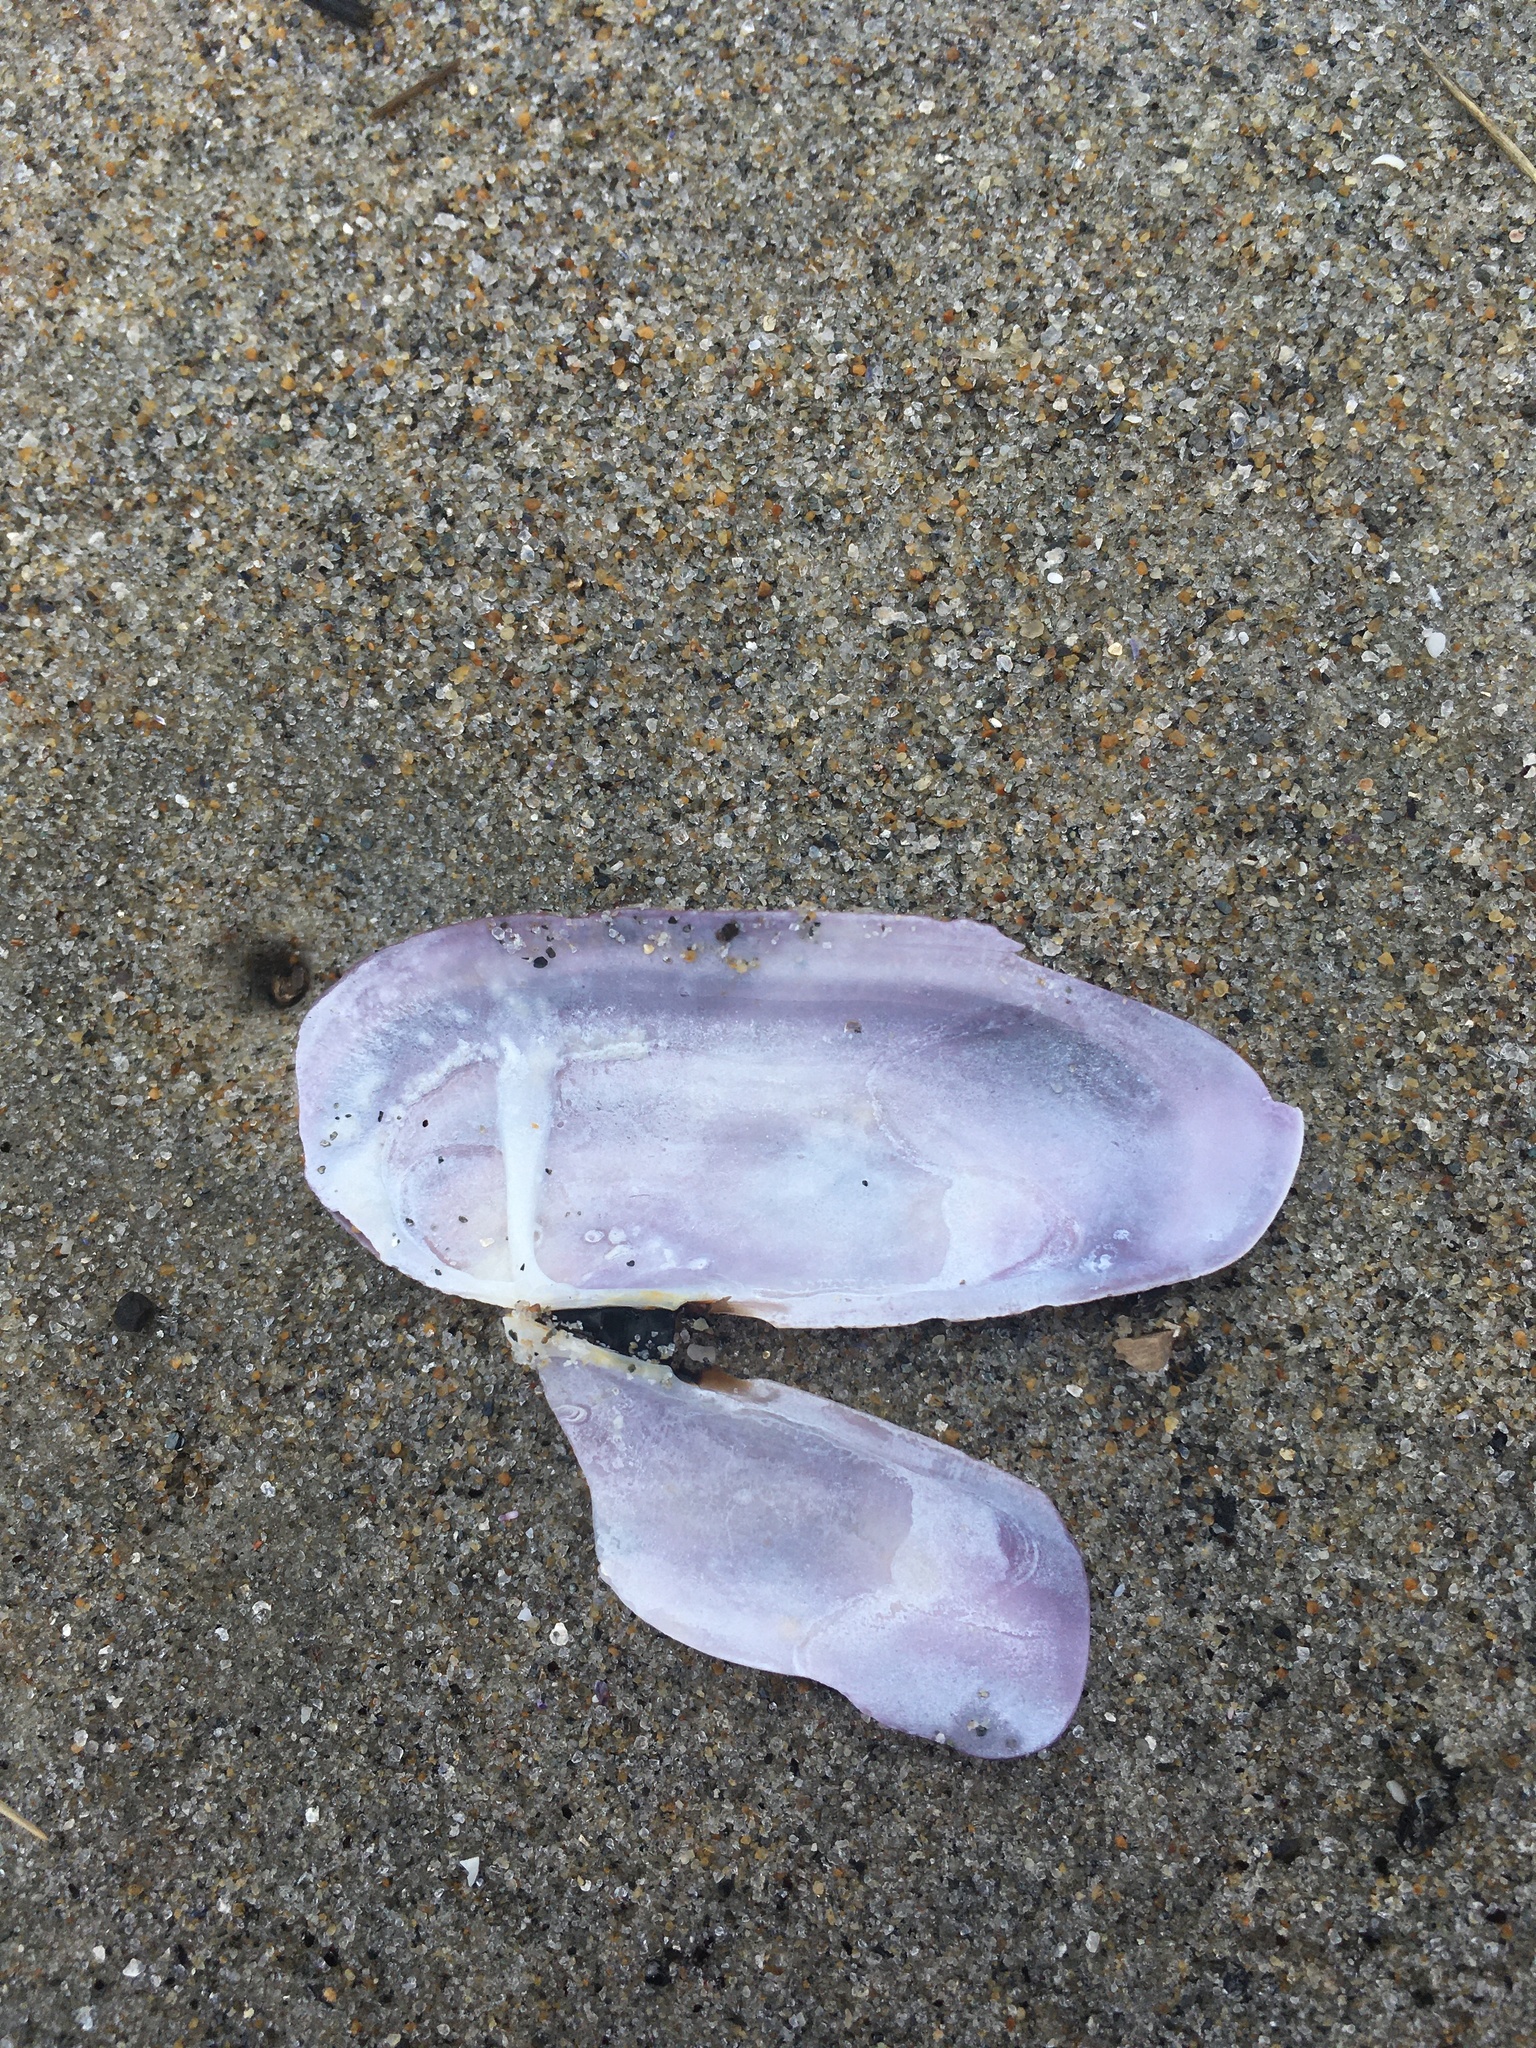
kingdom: Animalia
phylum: Mollusca
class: Bivalvia
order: Adapedonta
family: Pharidae
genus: Siliqua
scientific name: Siliqua costata
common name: Atlantic razor
